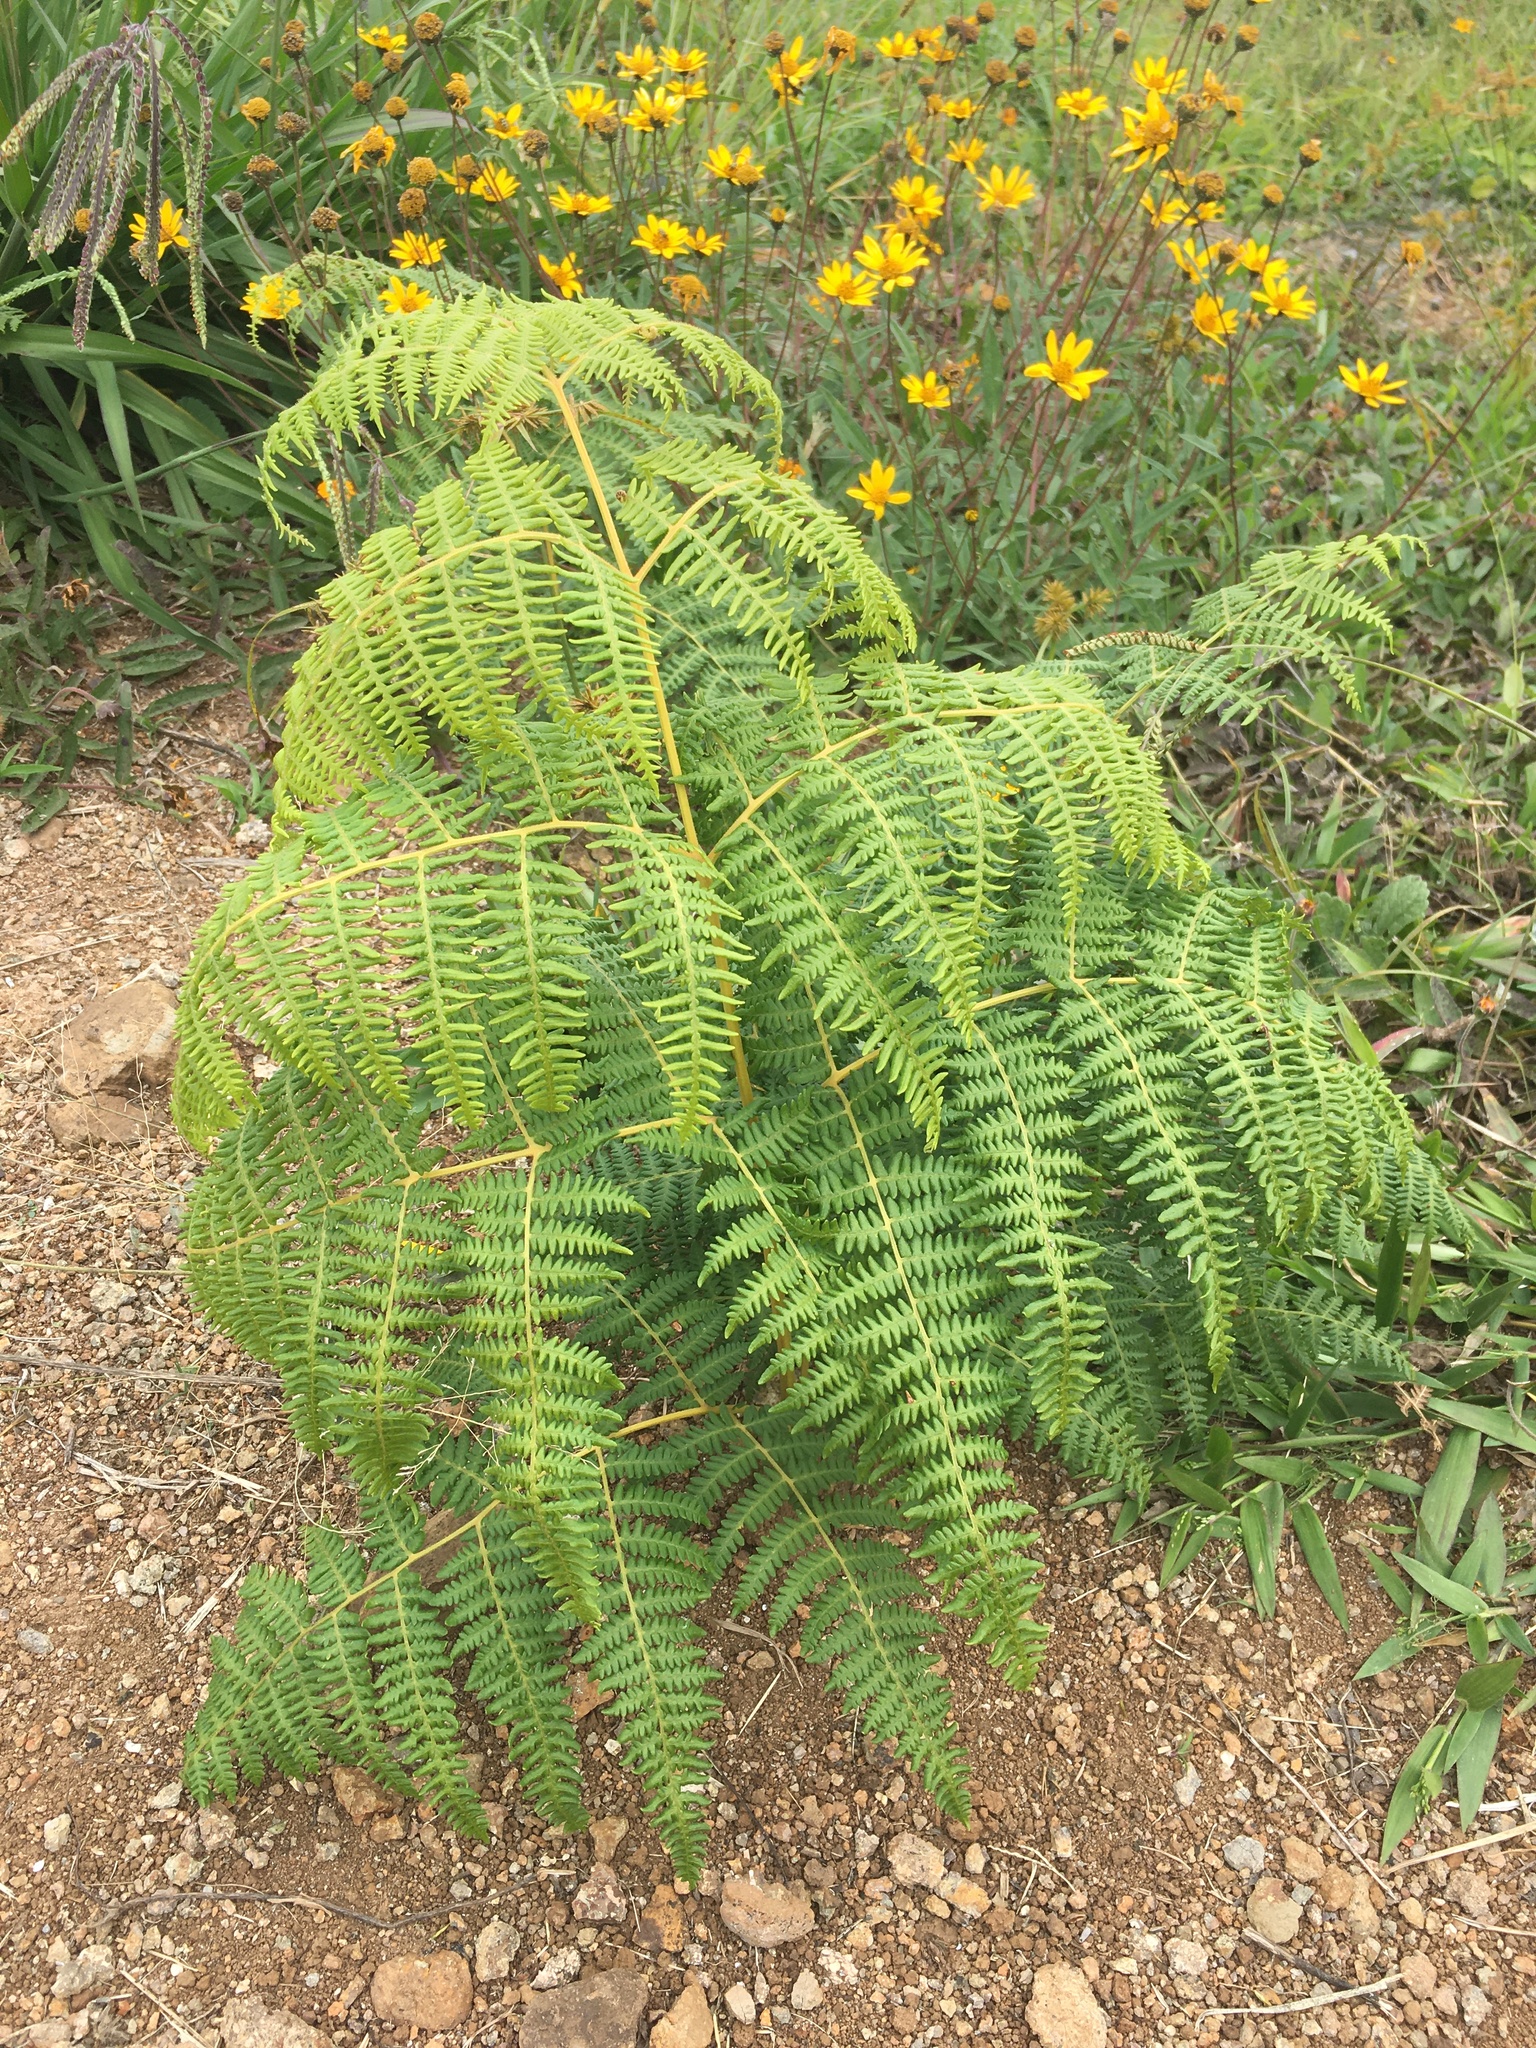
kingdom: Plantae
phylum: Tracheophyta
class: Polypodiopsida
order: Polypodiales
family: Dennstaedtiaceae
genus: Pteridium
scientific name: Pteridium esculentum
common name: Bracken fern
